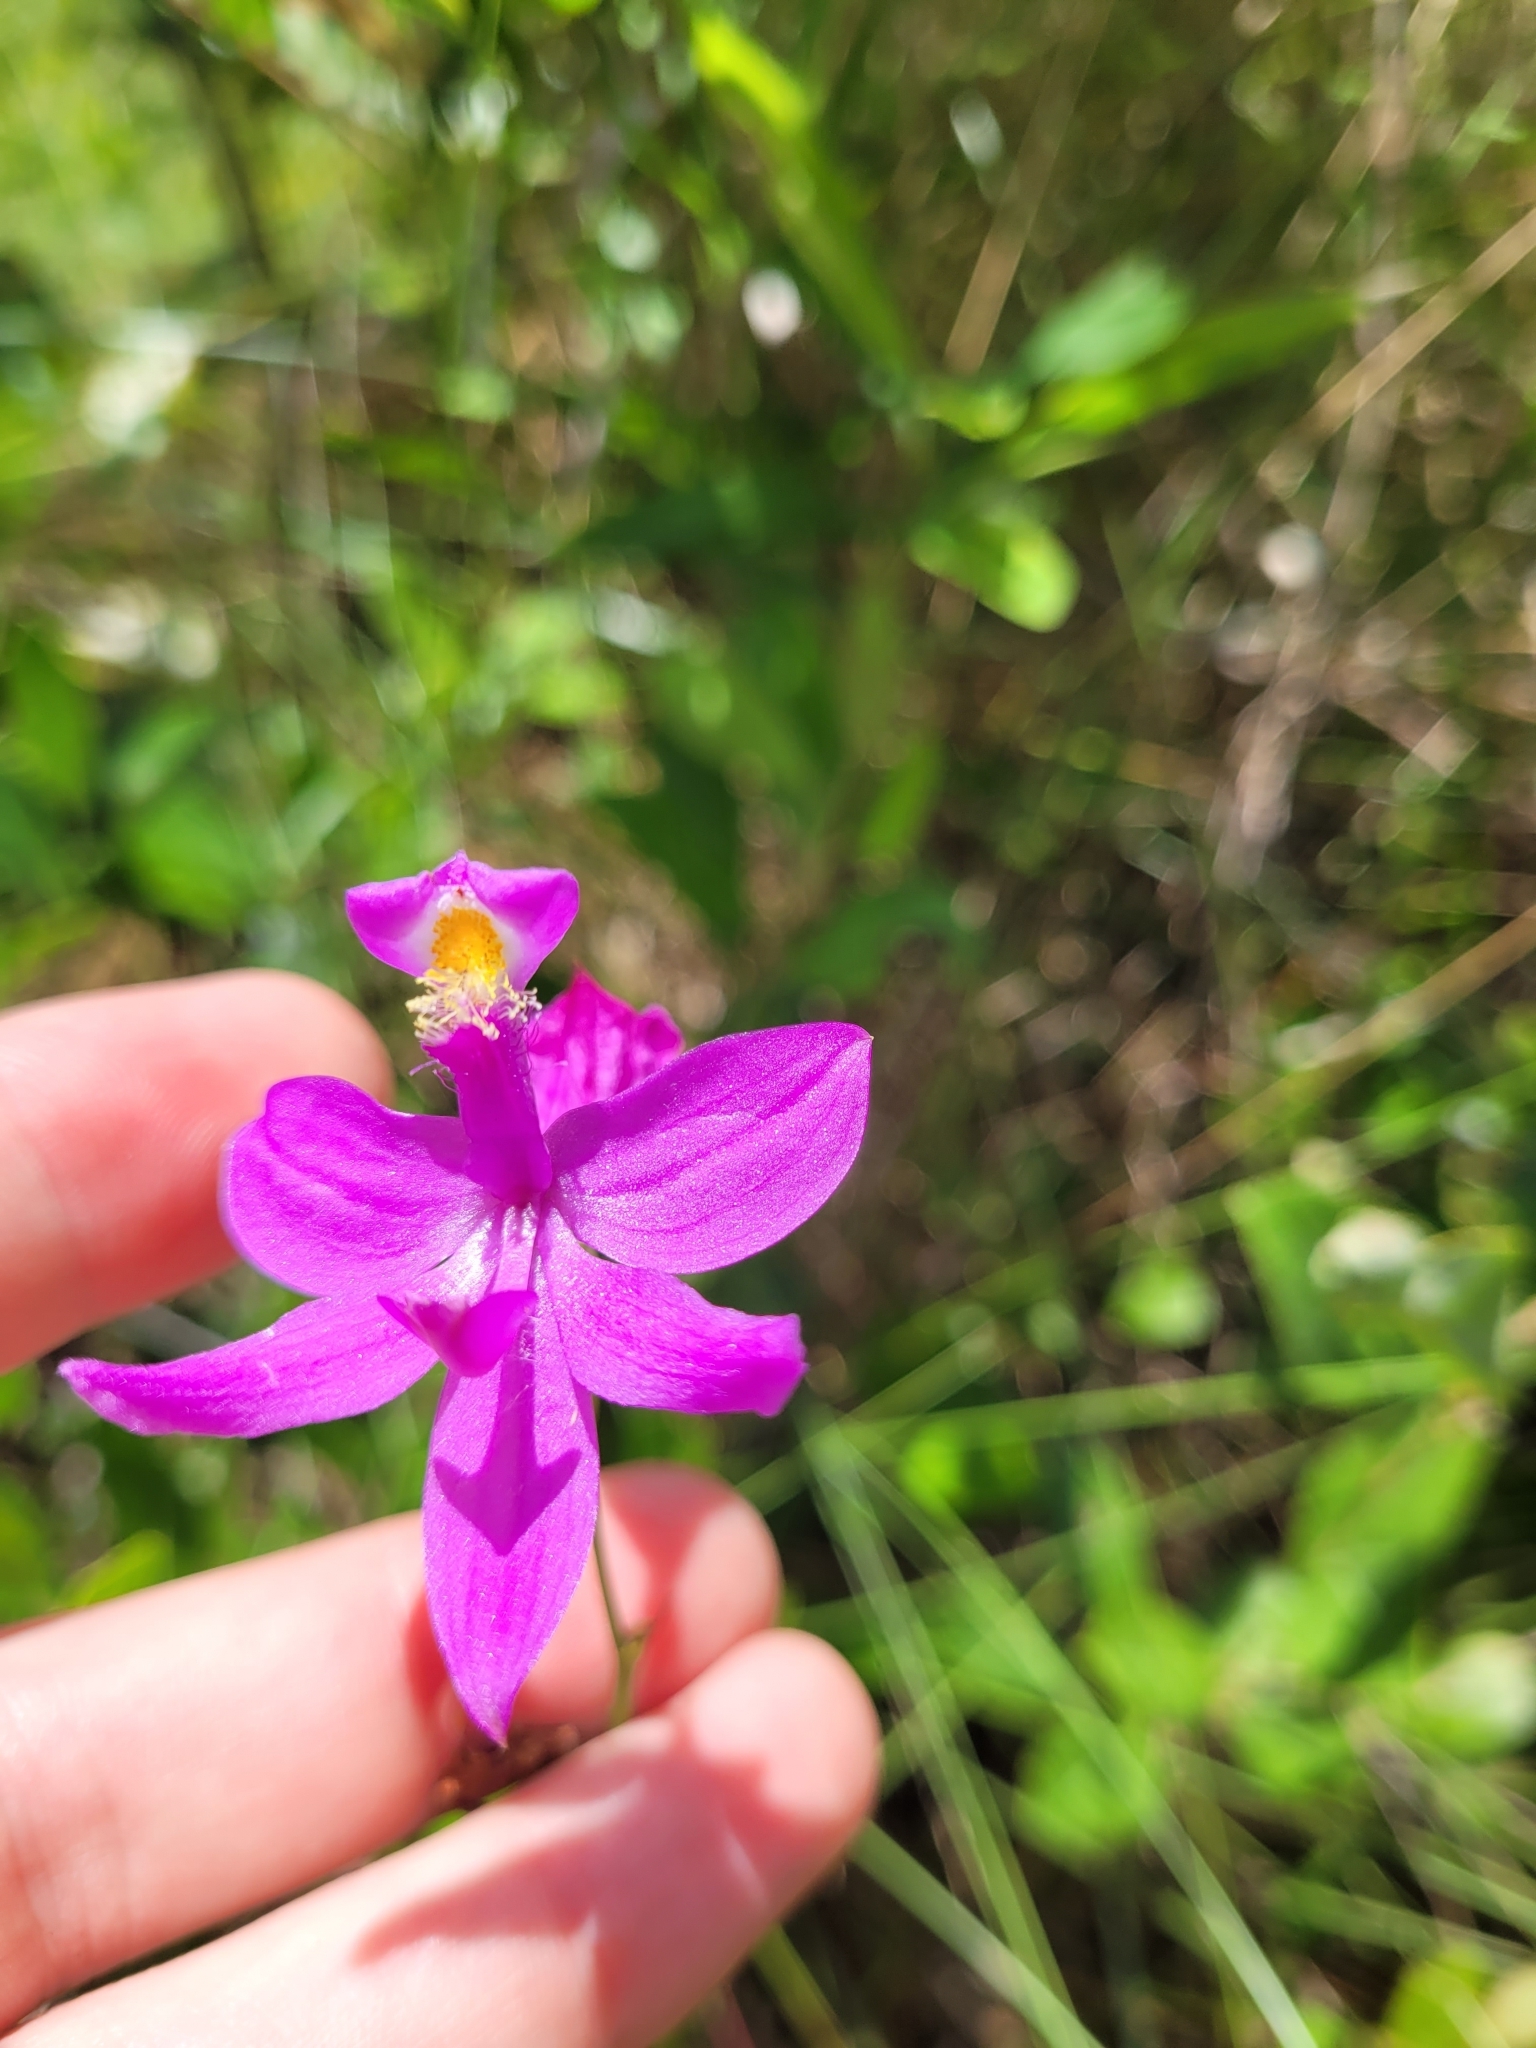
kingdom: Plantae
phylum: Tracheophyta
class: Liliopsida
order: Asparagales
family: Orchidaceae
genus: Calopogon
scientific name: Calopogon tuberosus
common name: Grass-pink
